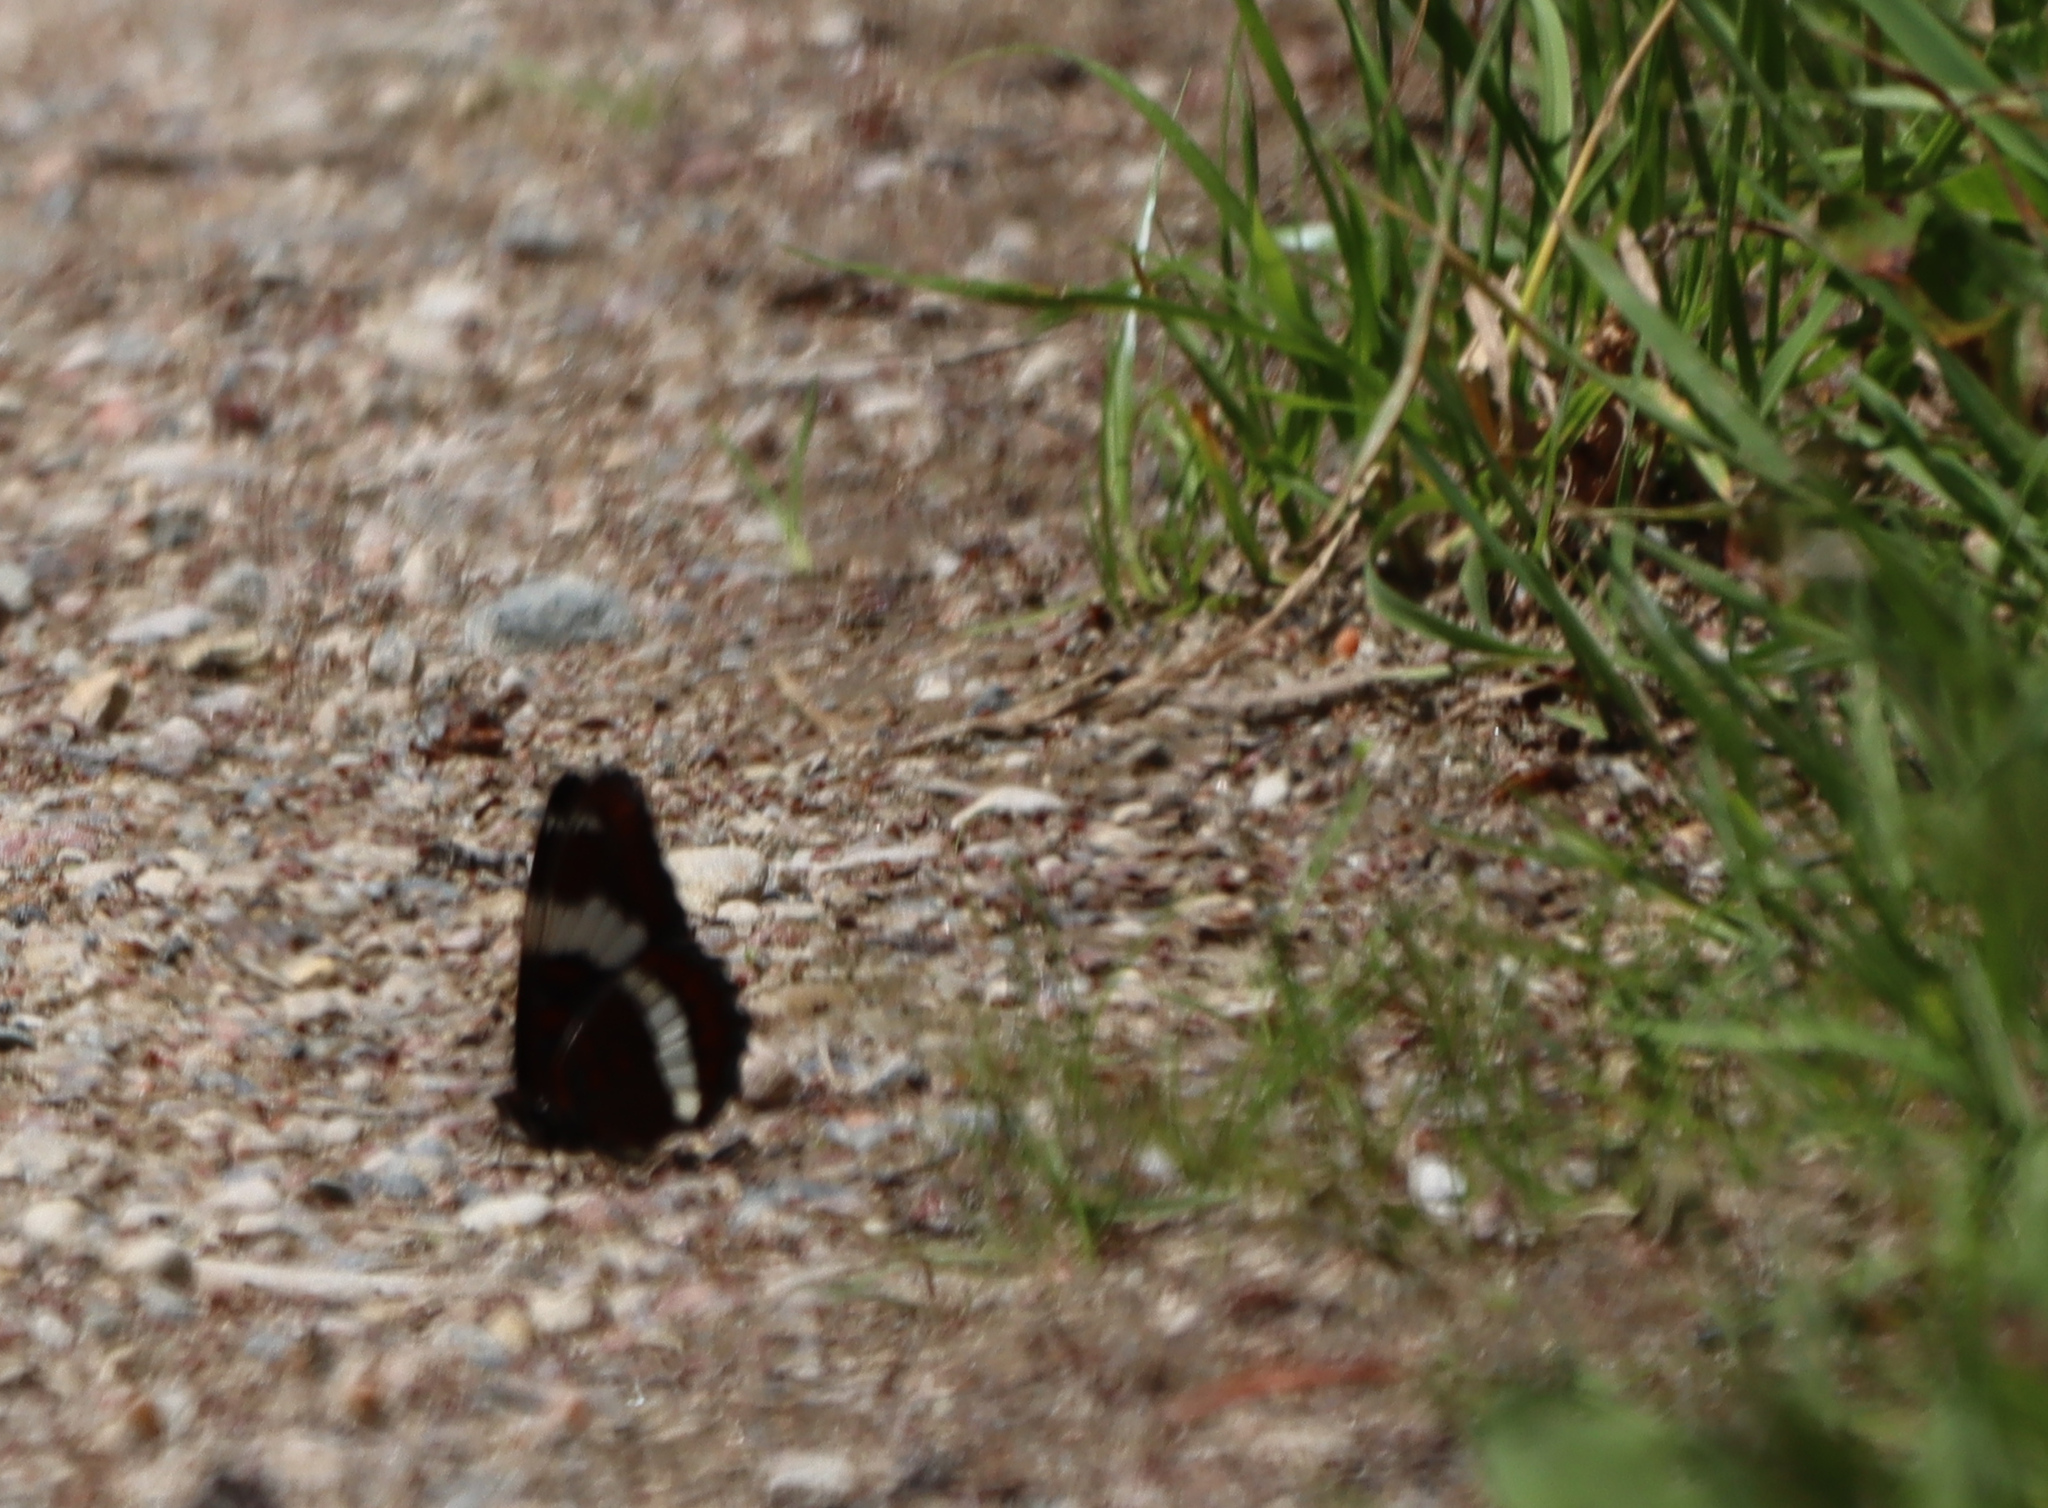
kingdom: Animalia
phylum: Arthropoda
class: Insecta
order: Lepidoptera
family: Nymphalidae
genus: Limenitis
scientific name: Limenitis arthemis
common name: Red-spotted admiral
